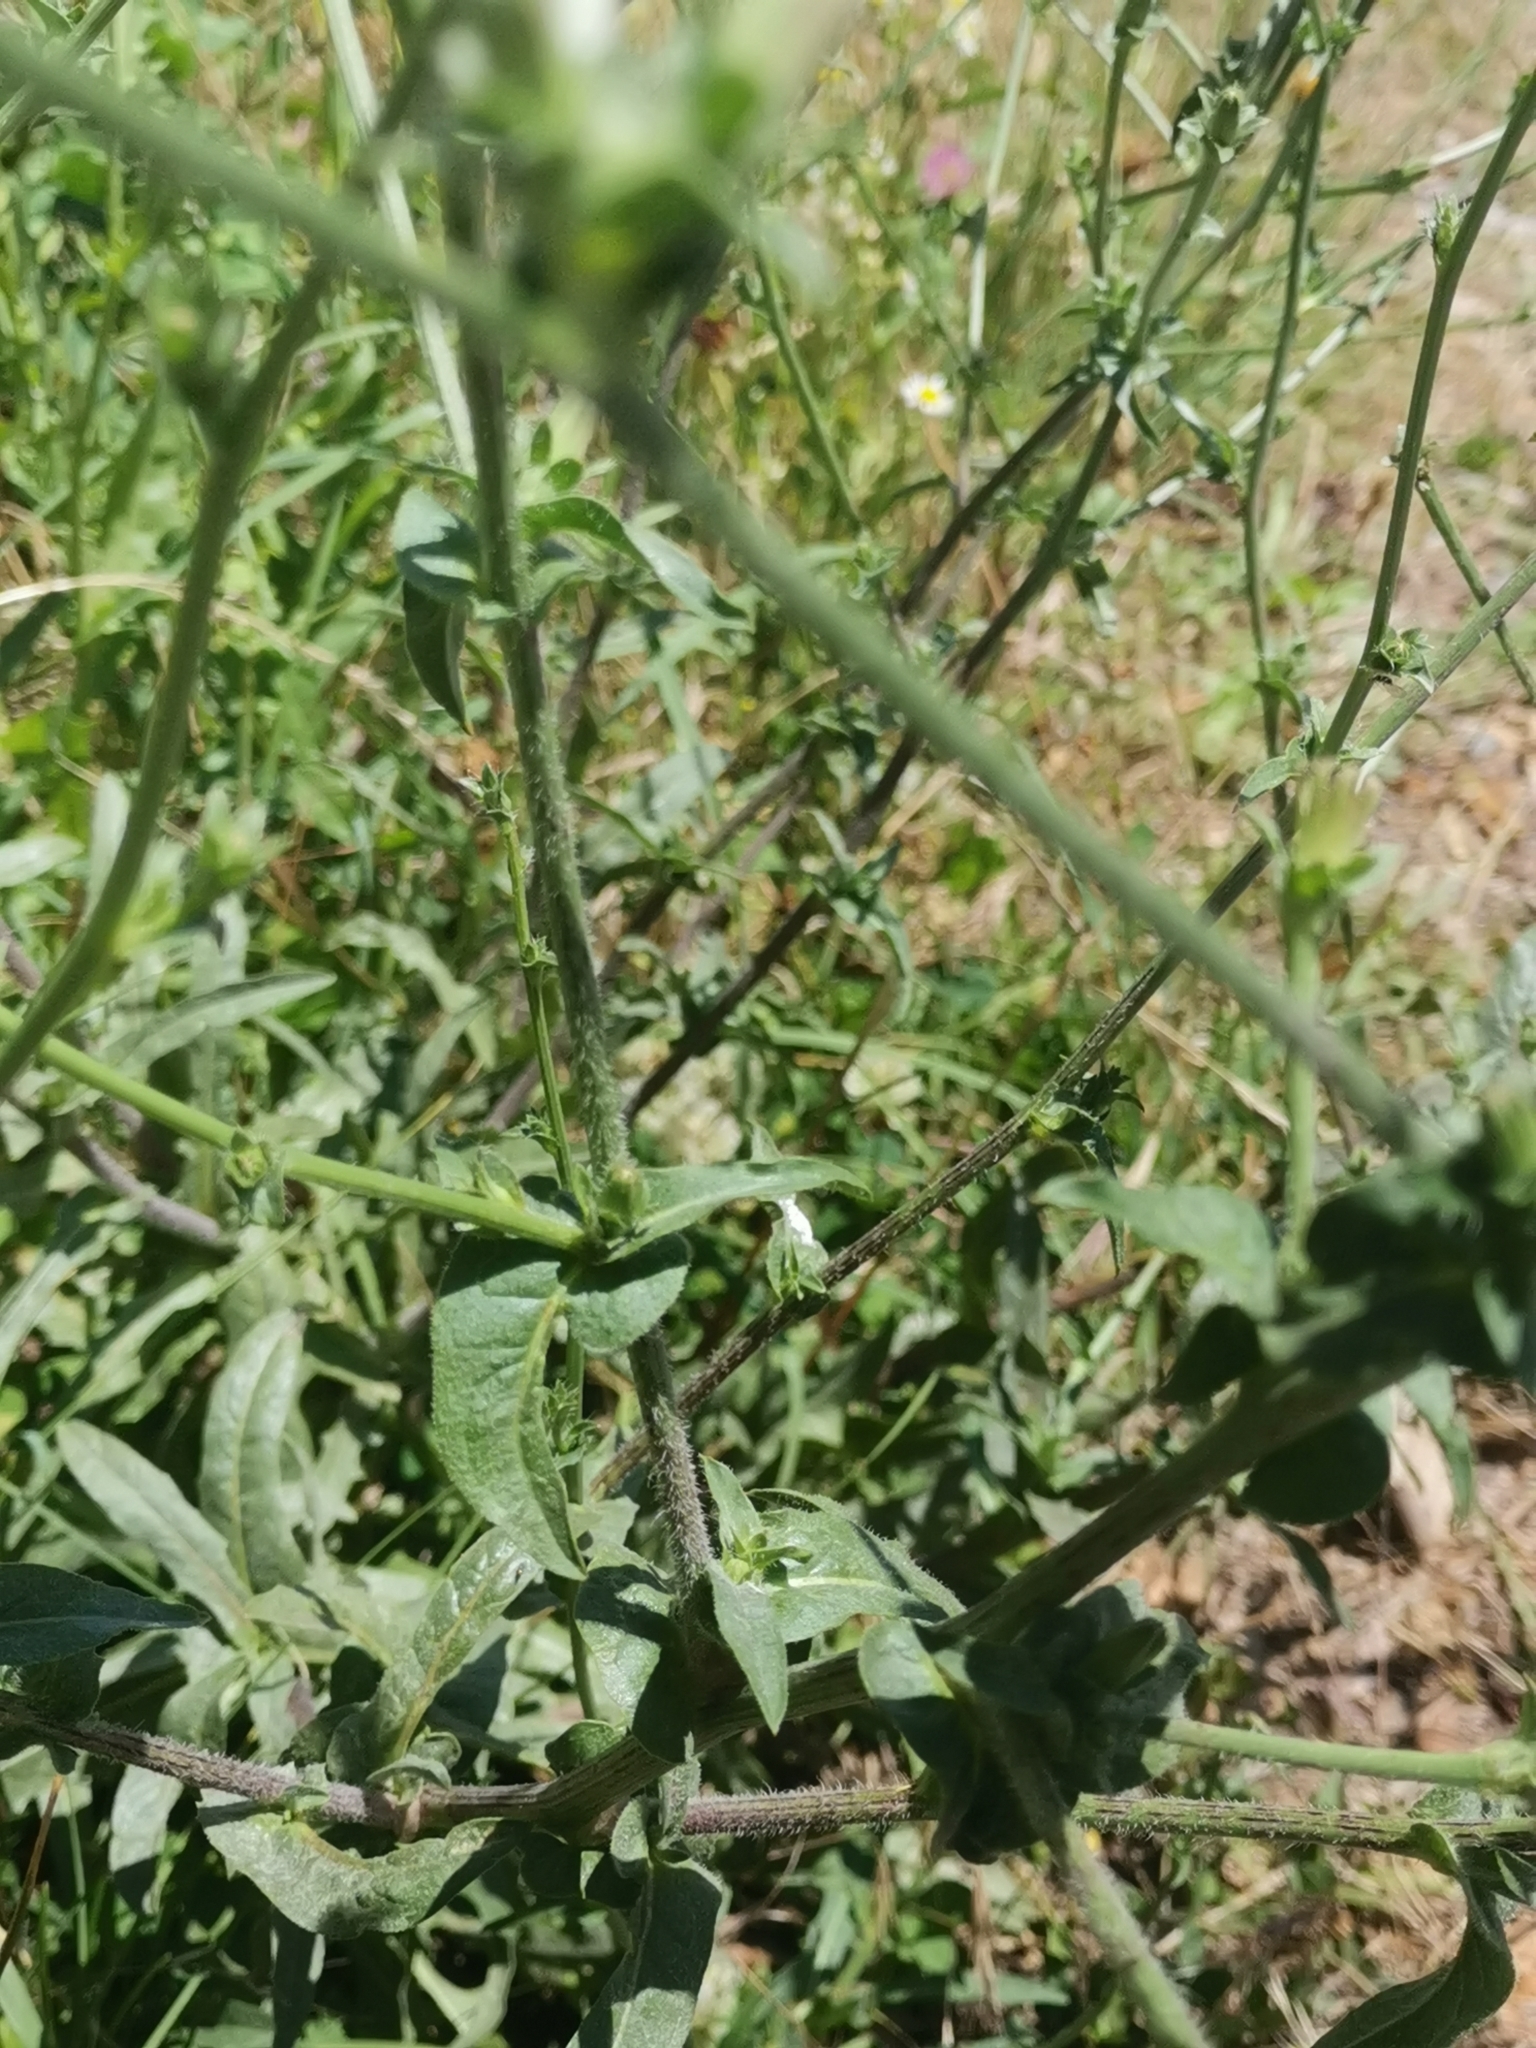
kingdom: Plantae
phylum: Tracheophyta
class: Magnoliopsida
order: Asterales
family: Asteraceae
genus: Cichorium
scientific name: Cichorium intybus
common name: Chicory
